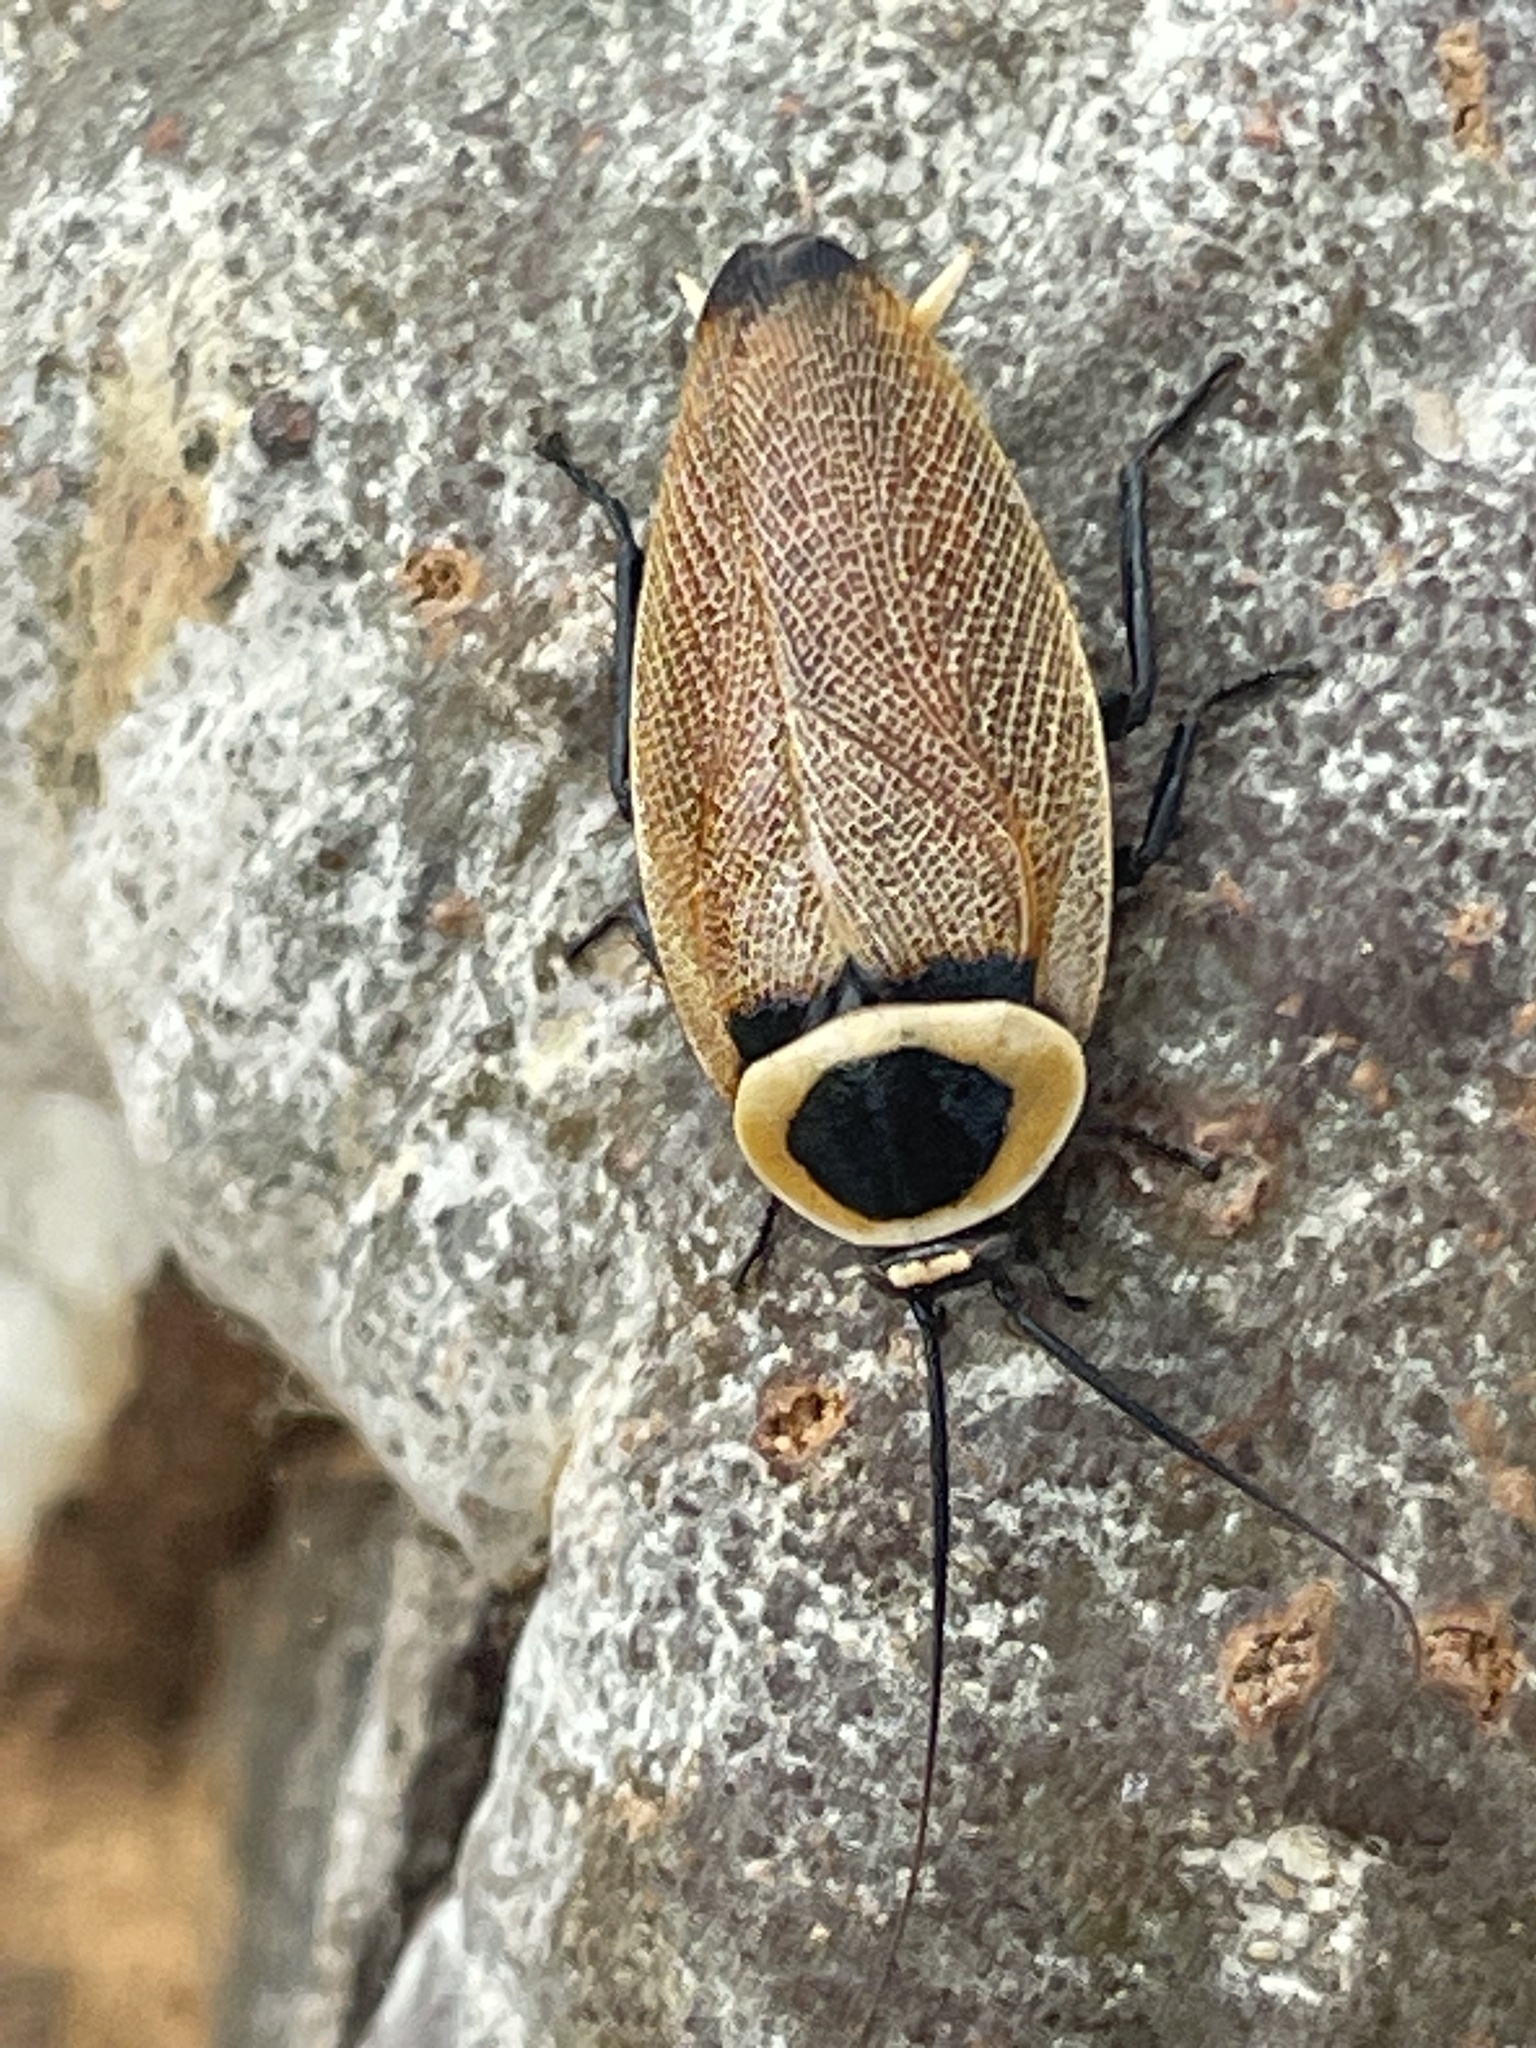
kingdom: Animalia
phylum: Arthropoda
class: Insecta
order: Blattodea
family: Ectobiidae
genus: Ellipsidion
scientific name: Ellipsidion australe
